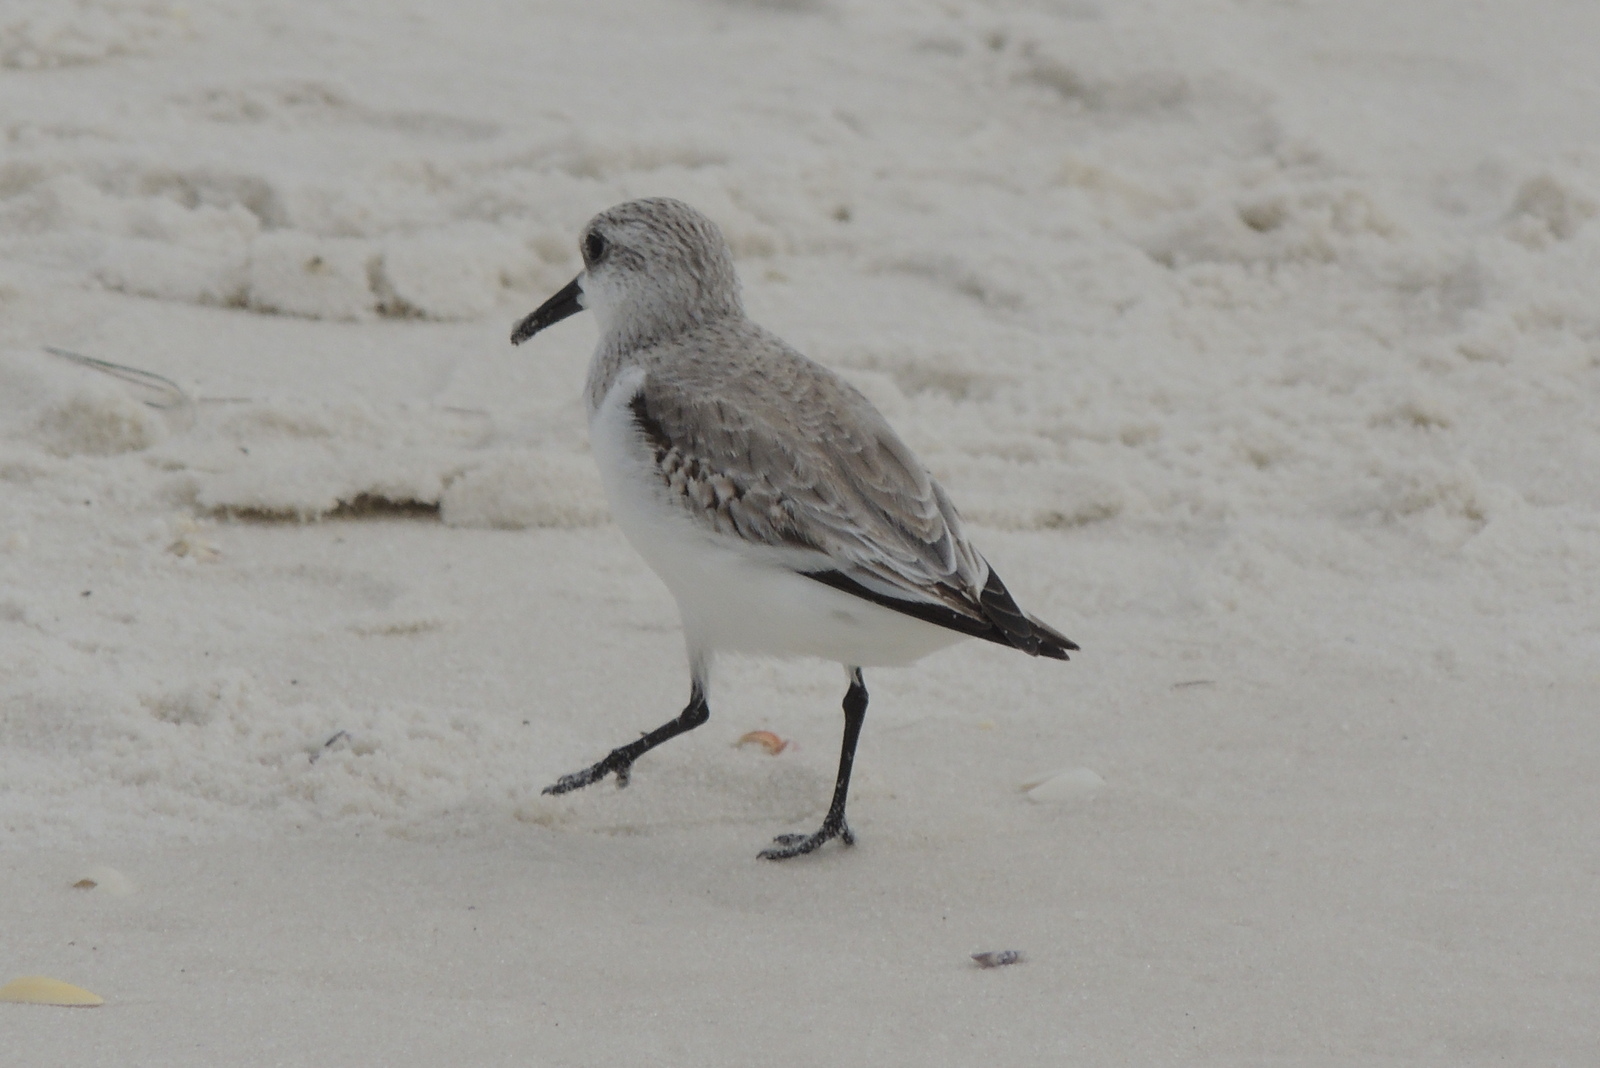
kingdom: Animalia
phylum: Chordata
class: Aves
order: Charadriiformes
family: Scolopacidae
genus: Calidris
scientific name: Calidris alba
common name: Sanderling
